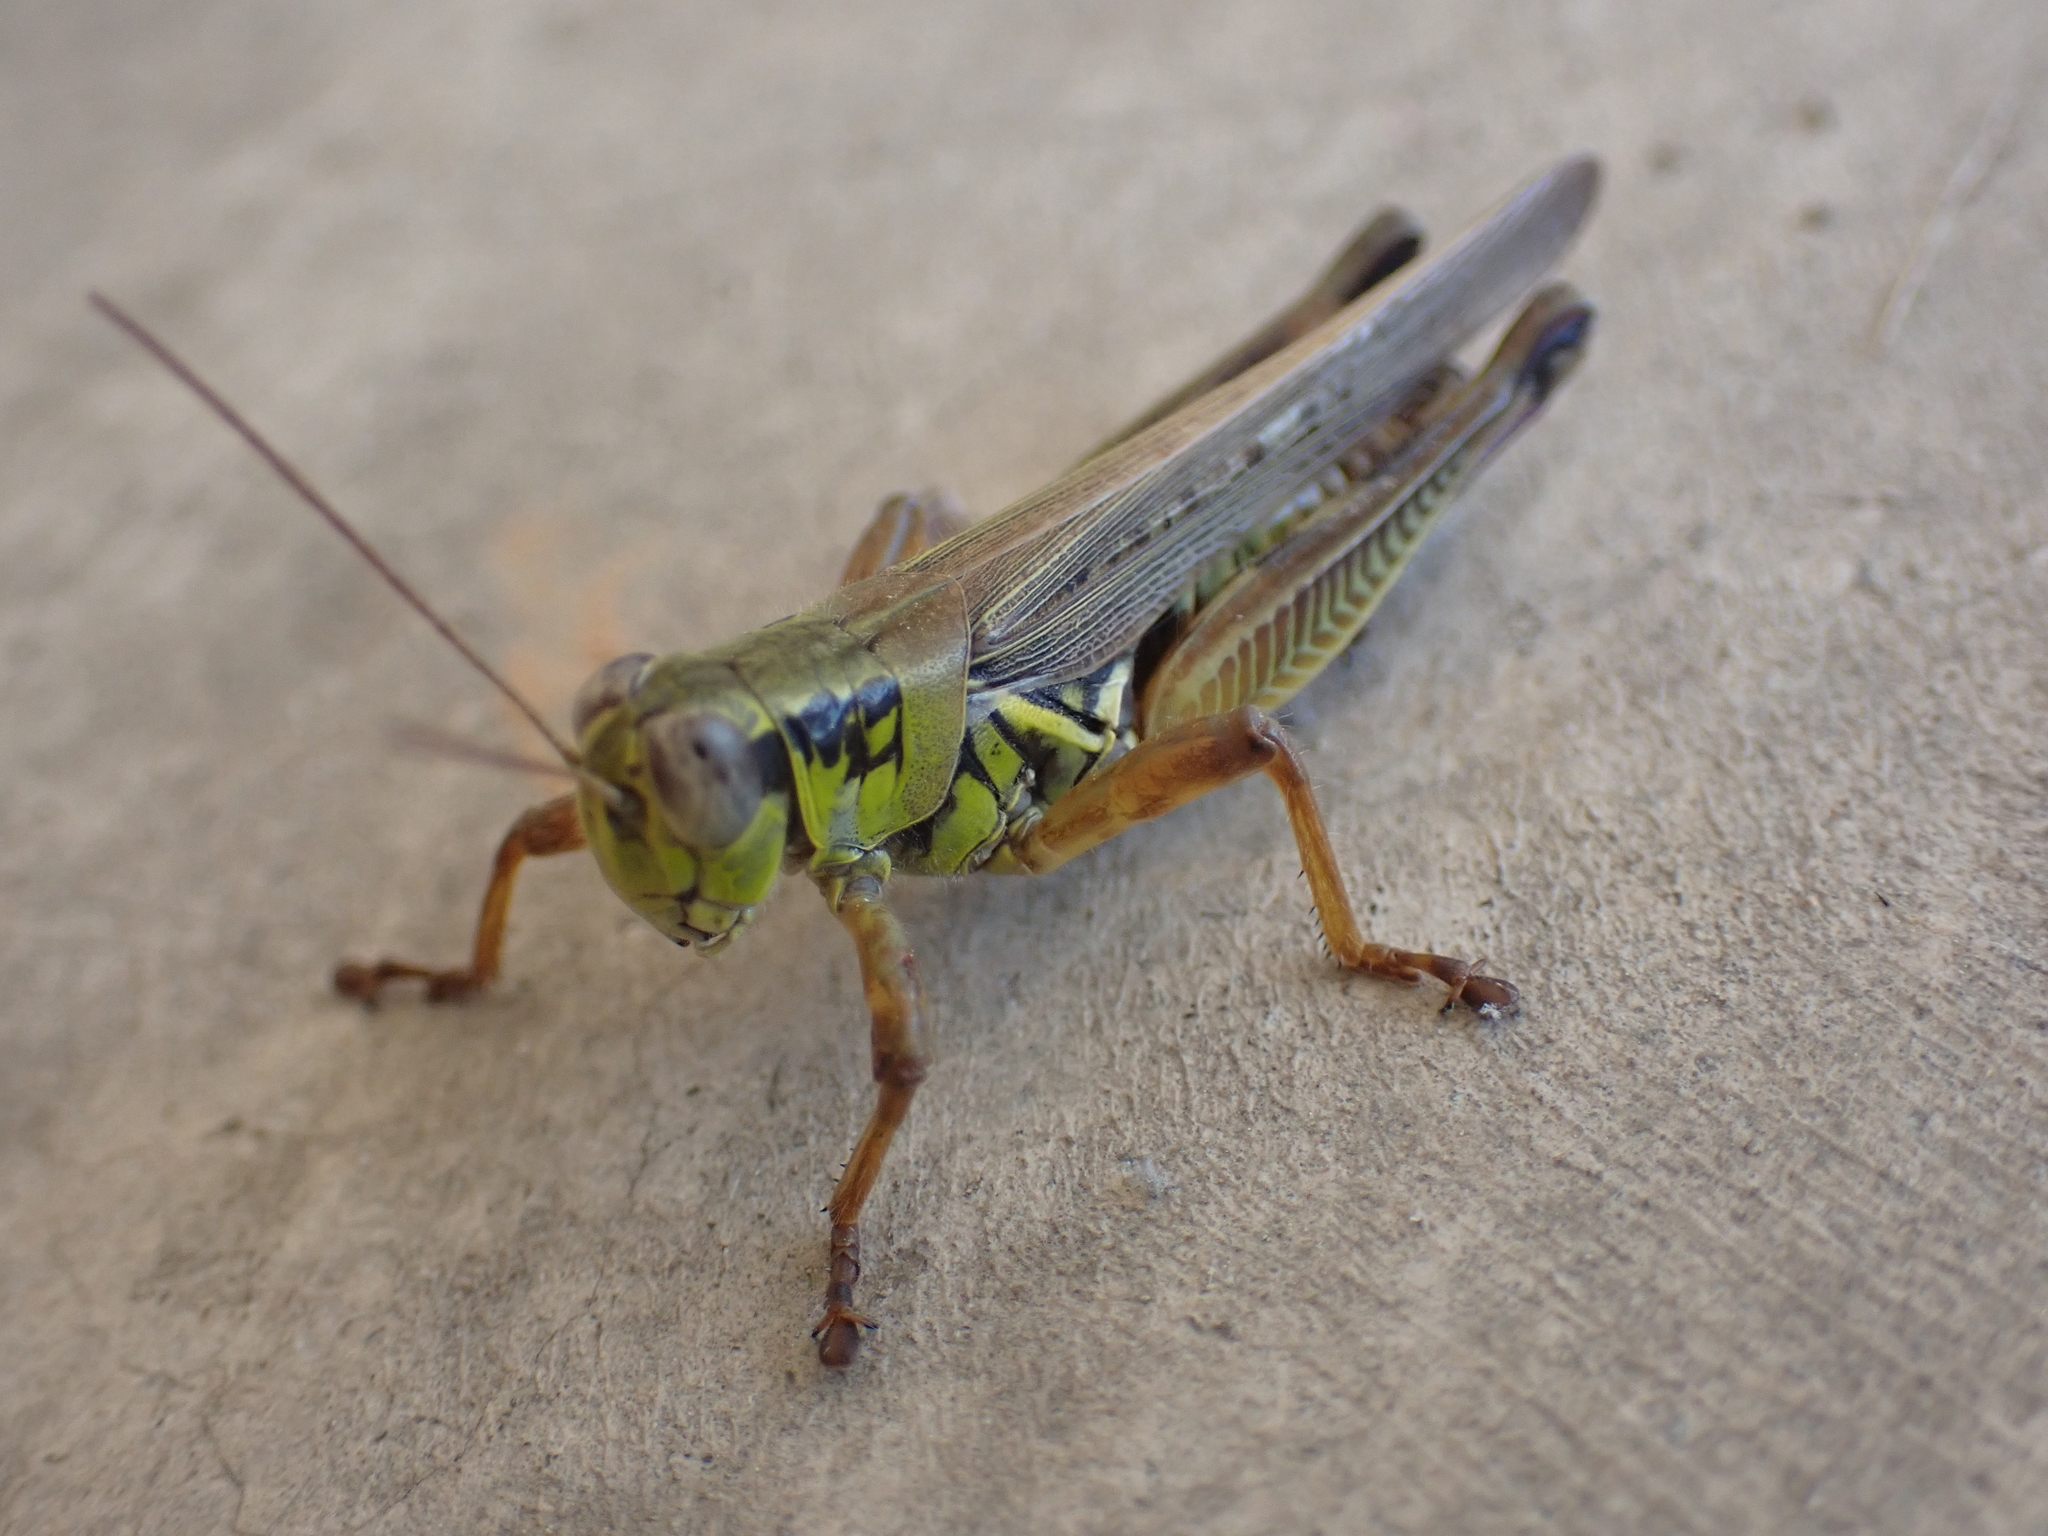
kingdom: Animalia
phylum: Arthropoda
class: Insecta
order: Orthoptera
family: Acrididae
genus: Melanoplus
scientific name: Melanoplus femurrubrum
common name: Red-legged grasshopper
